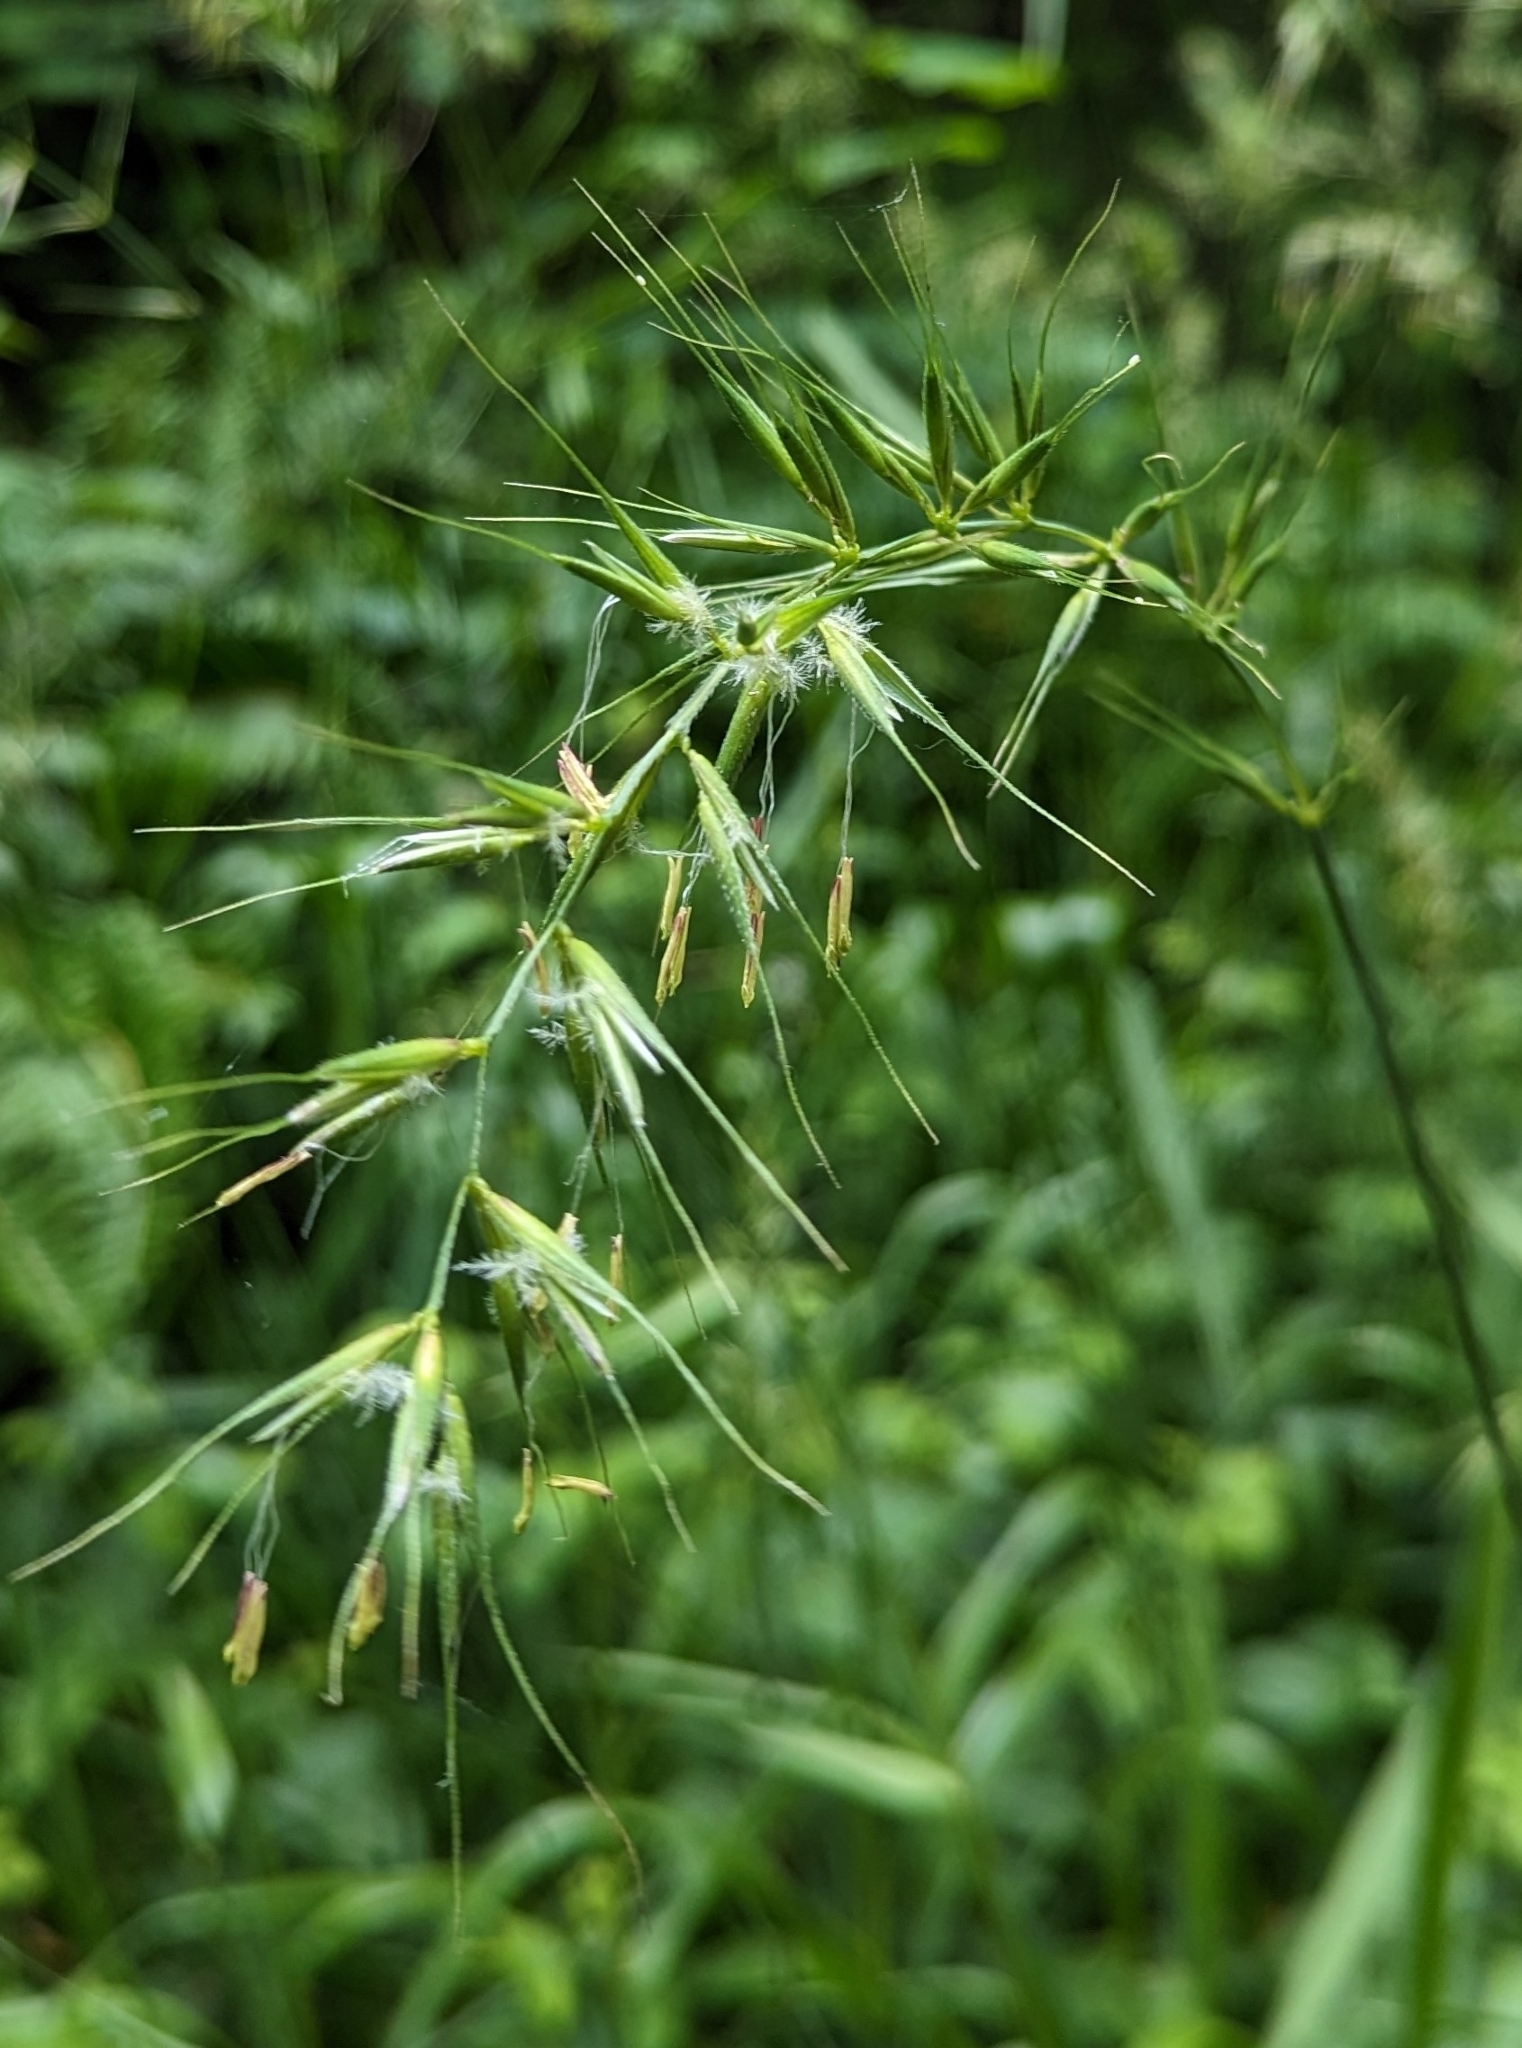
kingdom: Plantae
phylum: Tracheophyta
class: Liliopsida
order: Poales
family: Poaceae
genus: Elymus
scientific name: Elymus californicus
